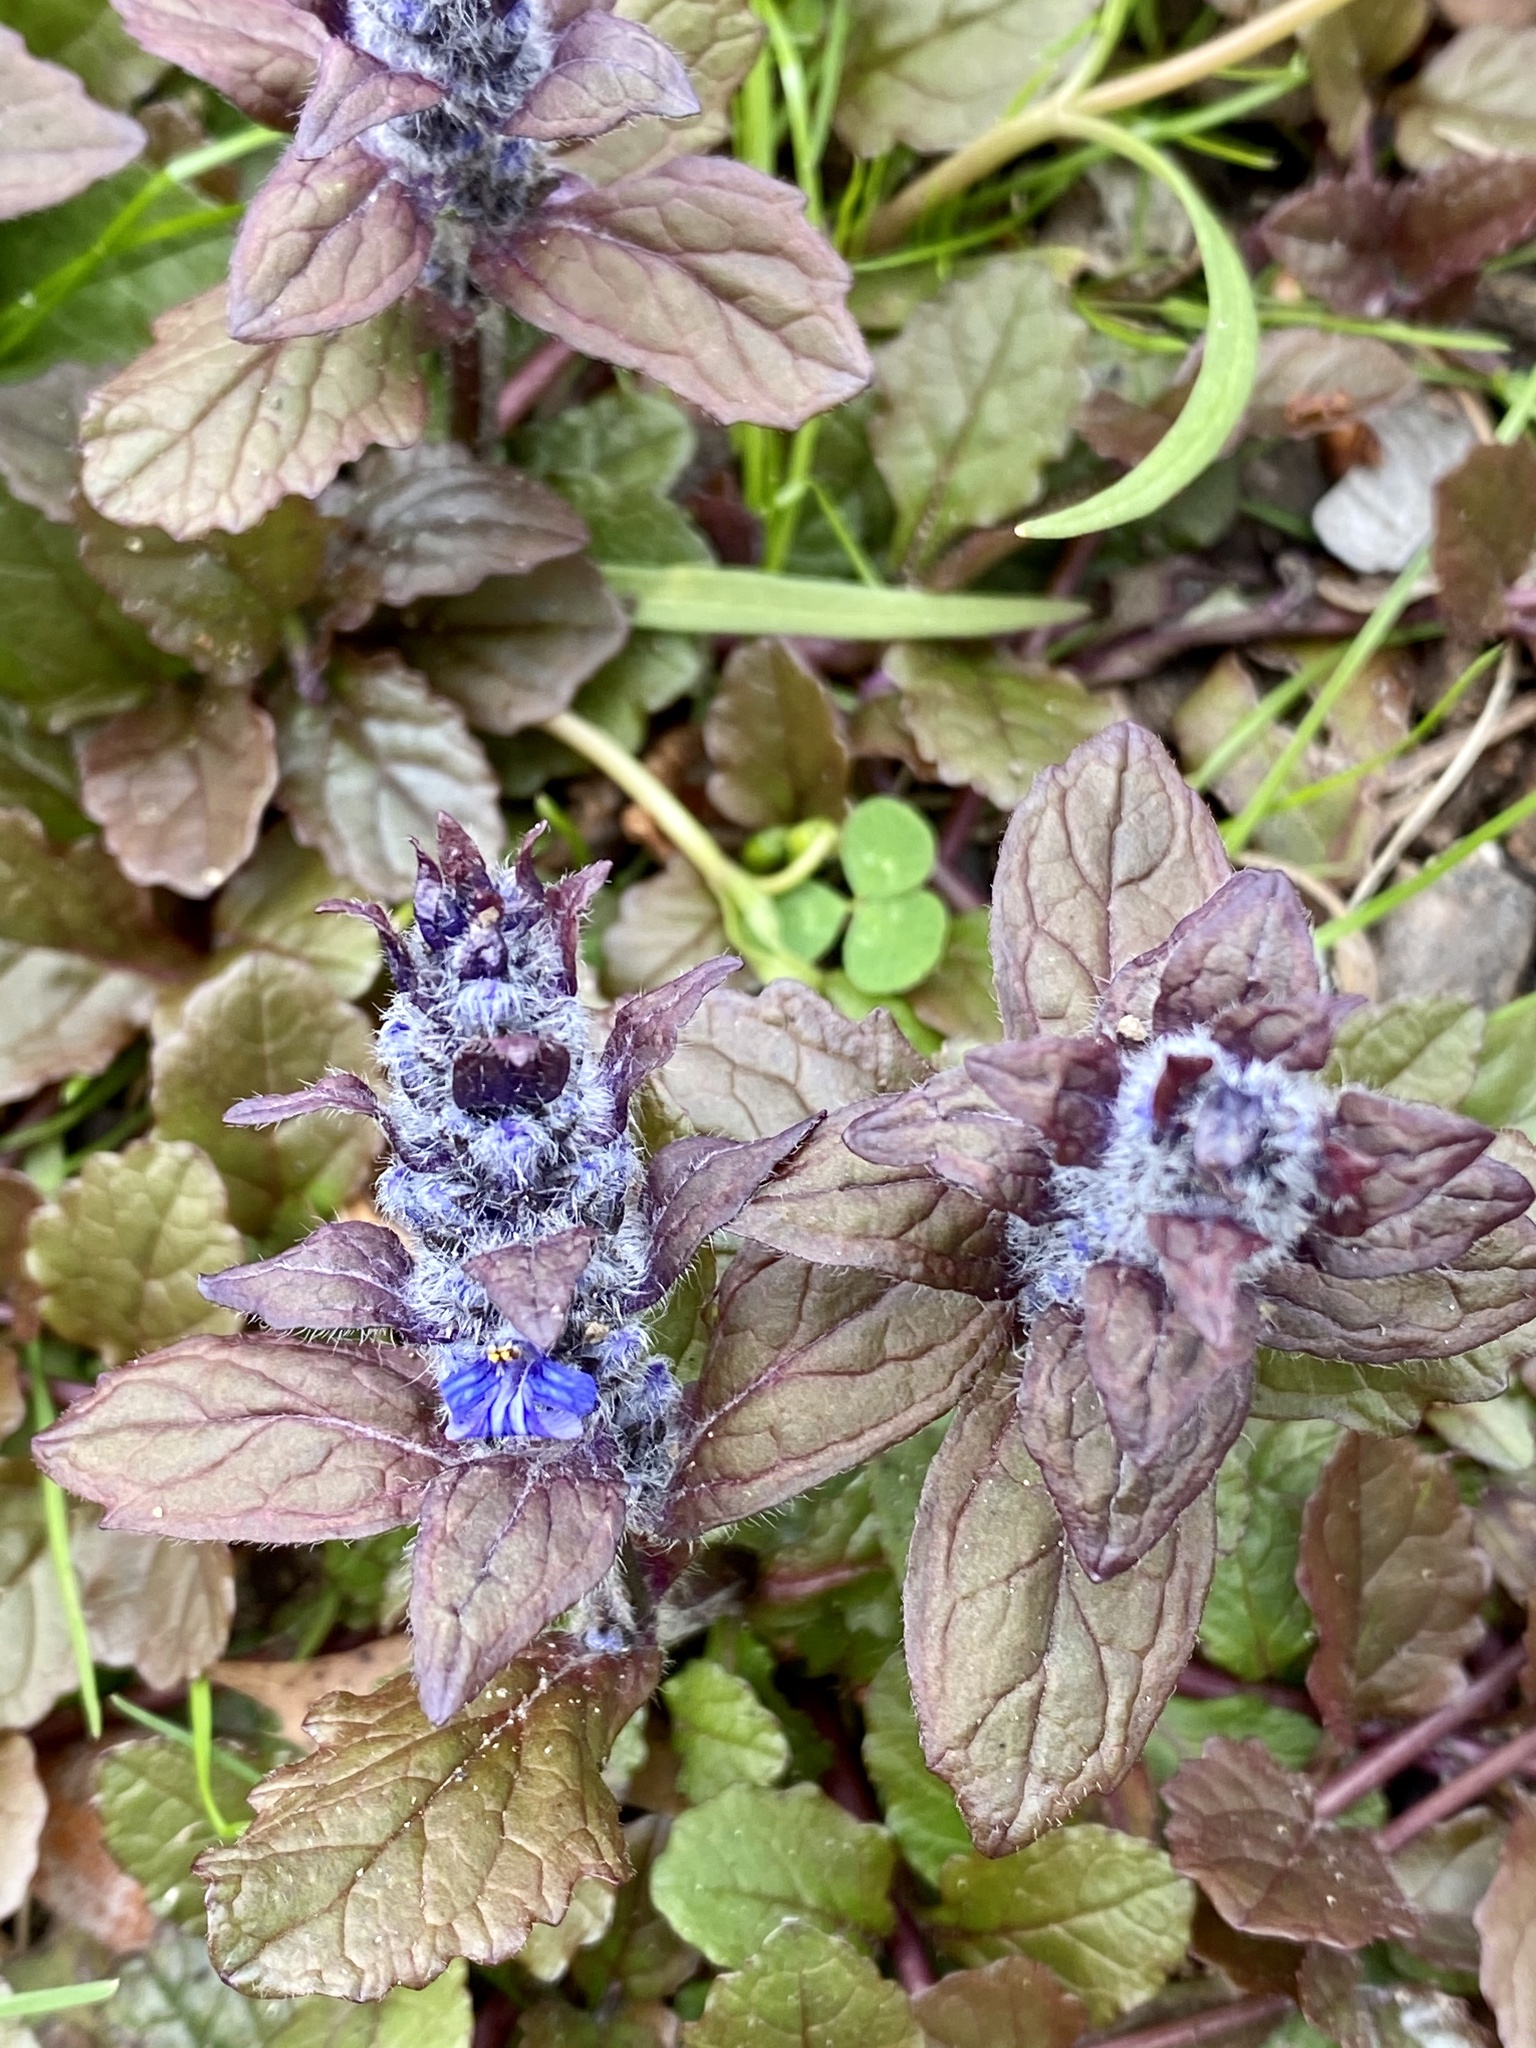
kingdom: Plantae
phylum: Tracheophyta
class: Magnoliopsida
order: Lamiales
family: Lamiaceae
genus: Ajuga
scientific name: Ajuga reptans
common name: Bugle
